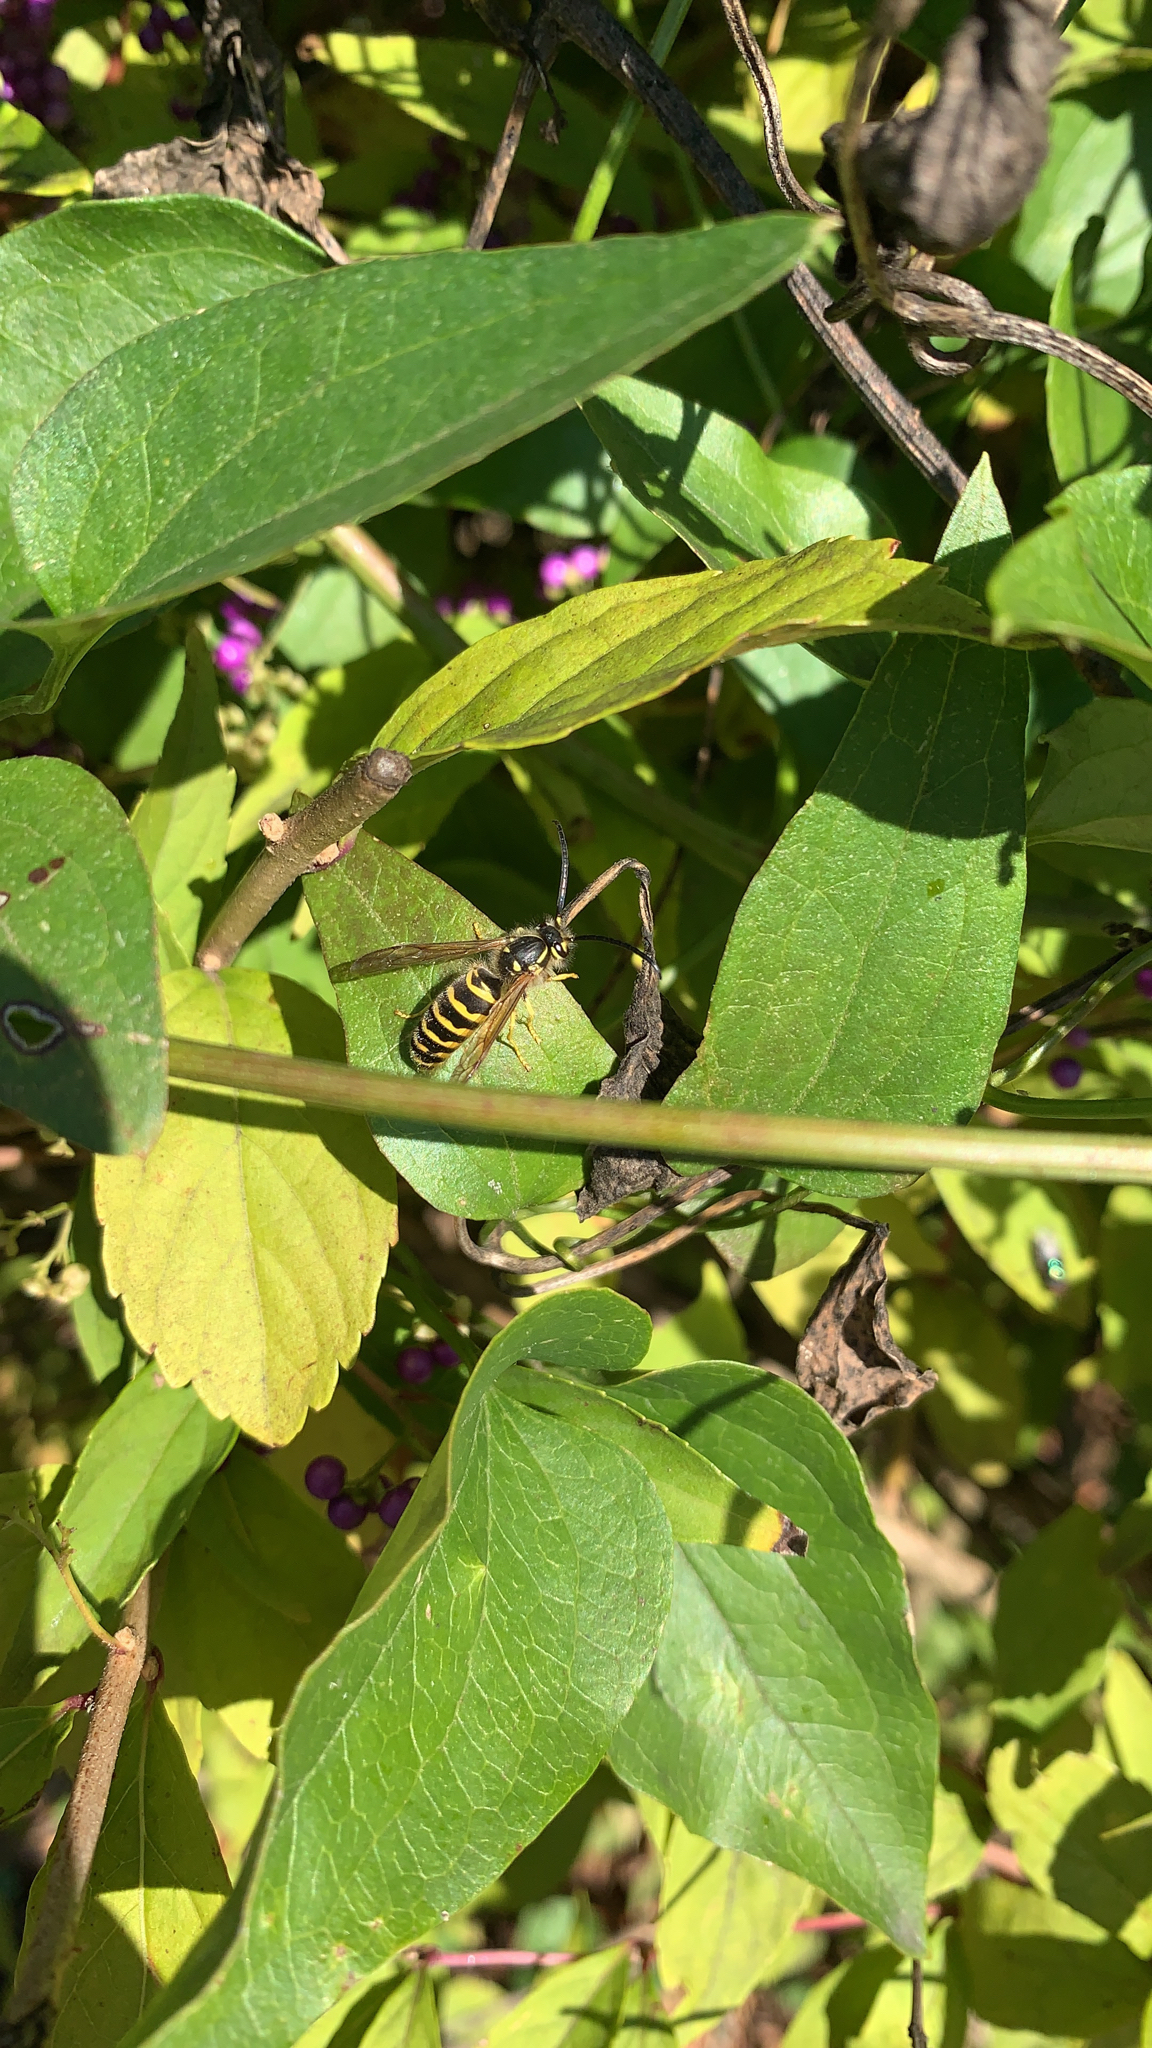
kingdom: Animalia
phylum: Arthropoda
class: Insecta
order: Hymenoptera
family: Vespidae
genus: Vespula
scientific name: Vespula maculifrons
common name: Eastern yellowjacket
